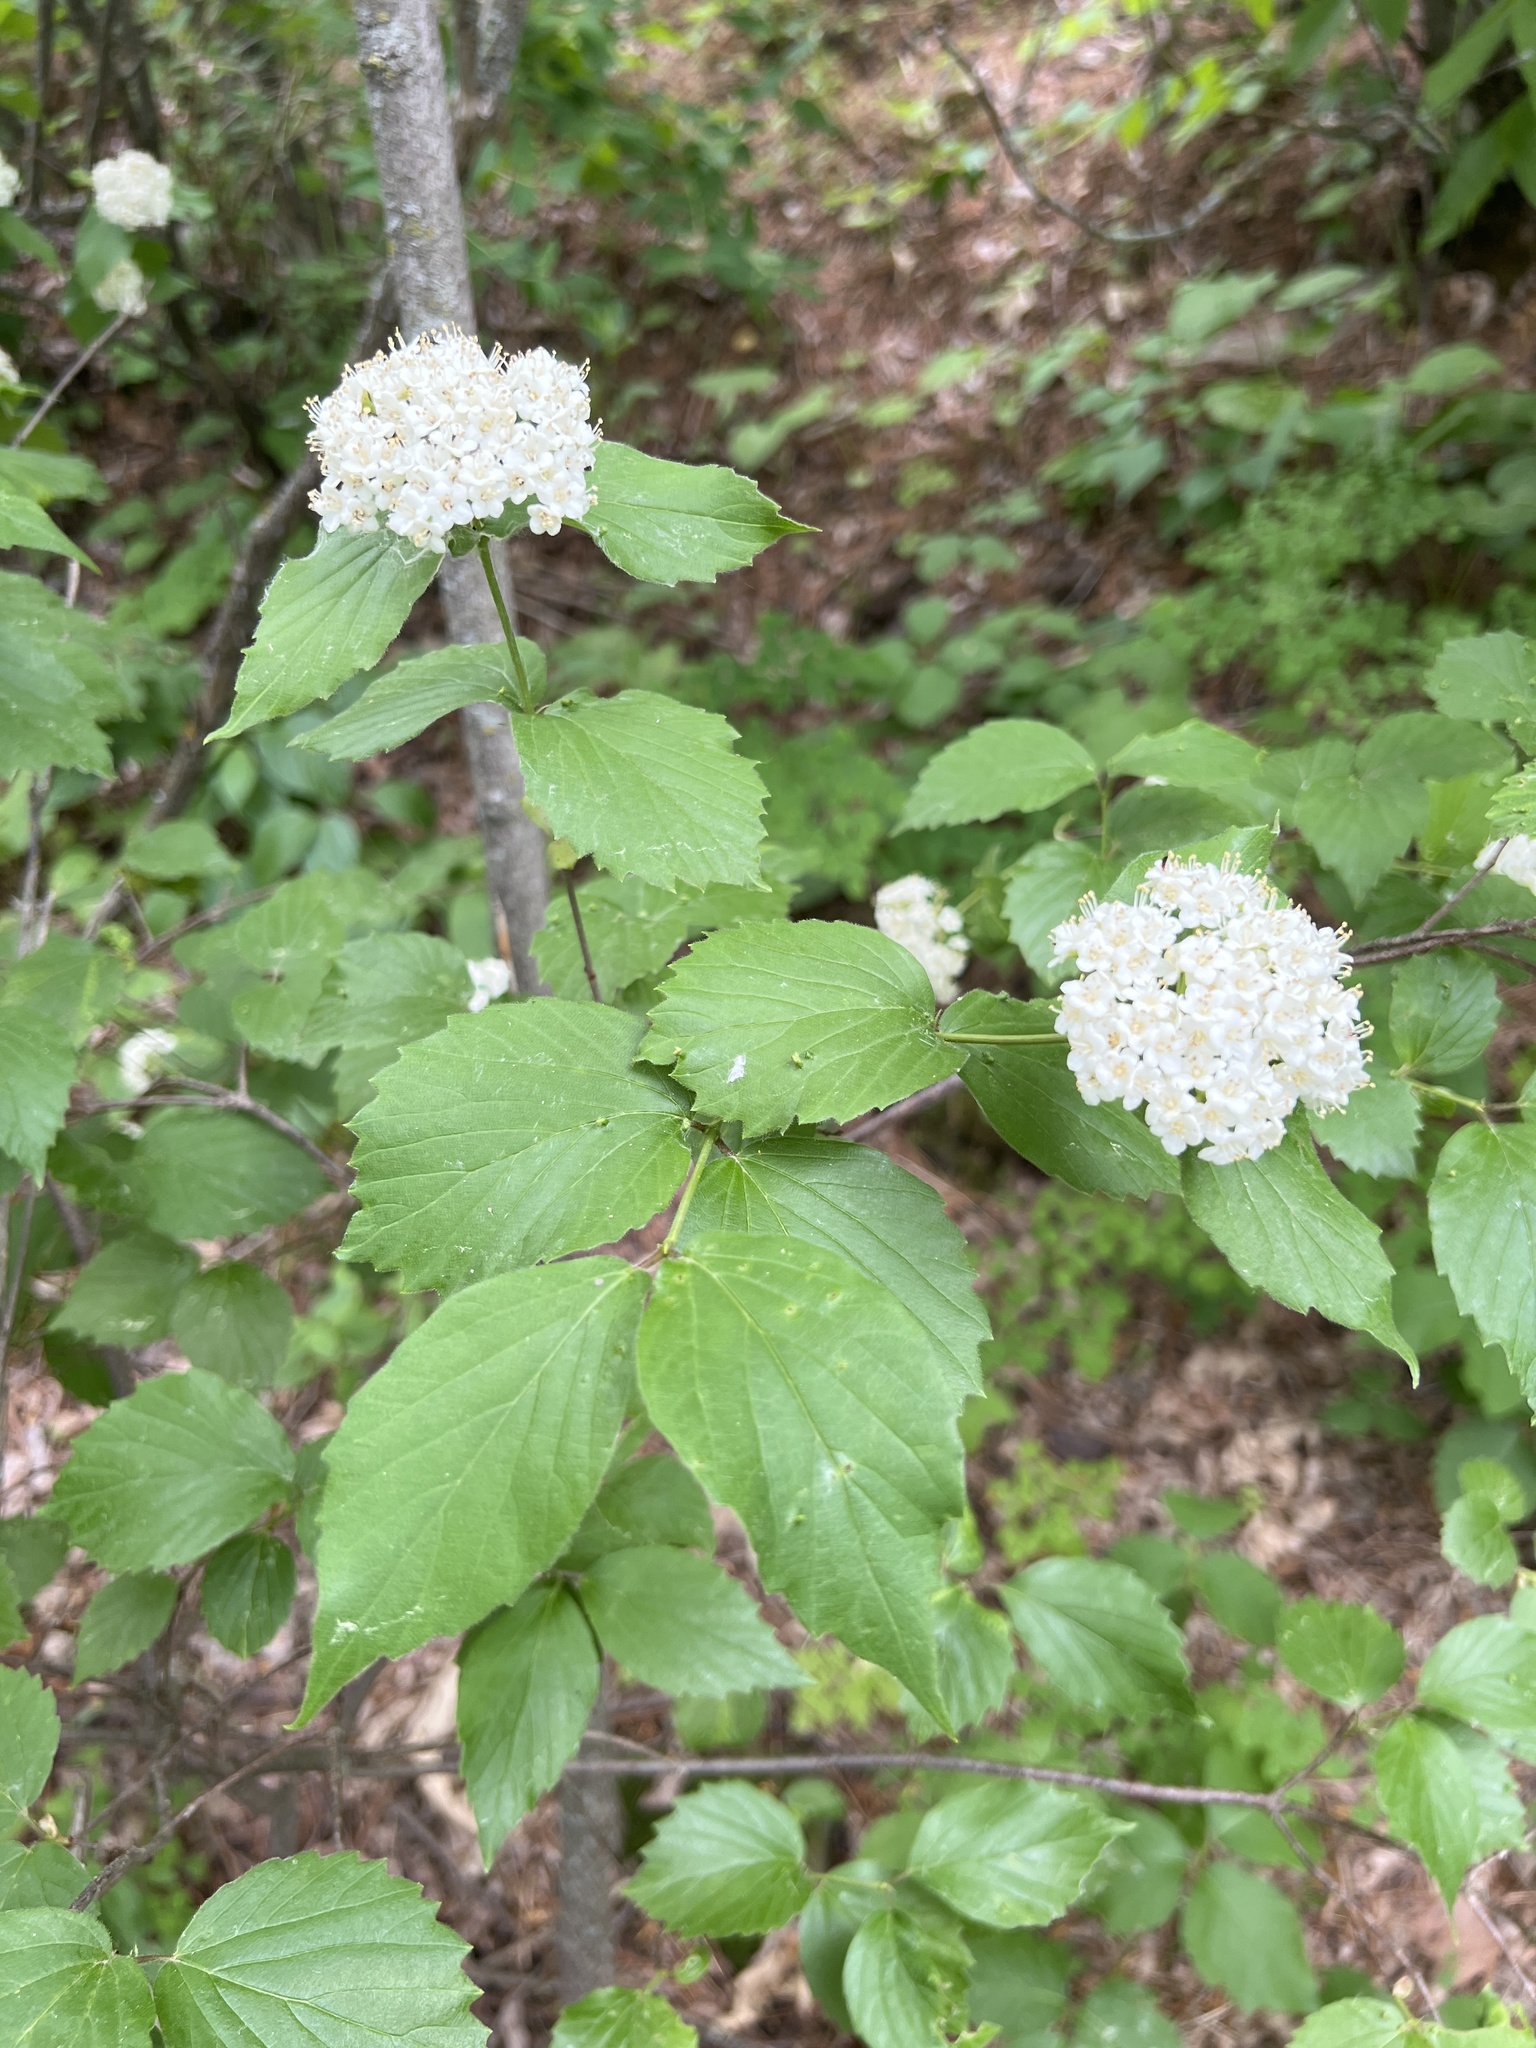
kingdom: Plantae
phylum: Tracheophyta
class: Magnoliopsida
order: Dipsacales
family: Viburnaceae
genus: Viburnum
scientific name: Viburnum rafinesqueanum
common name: Downy arrow-wood
